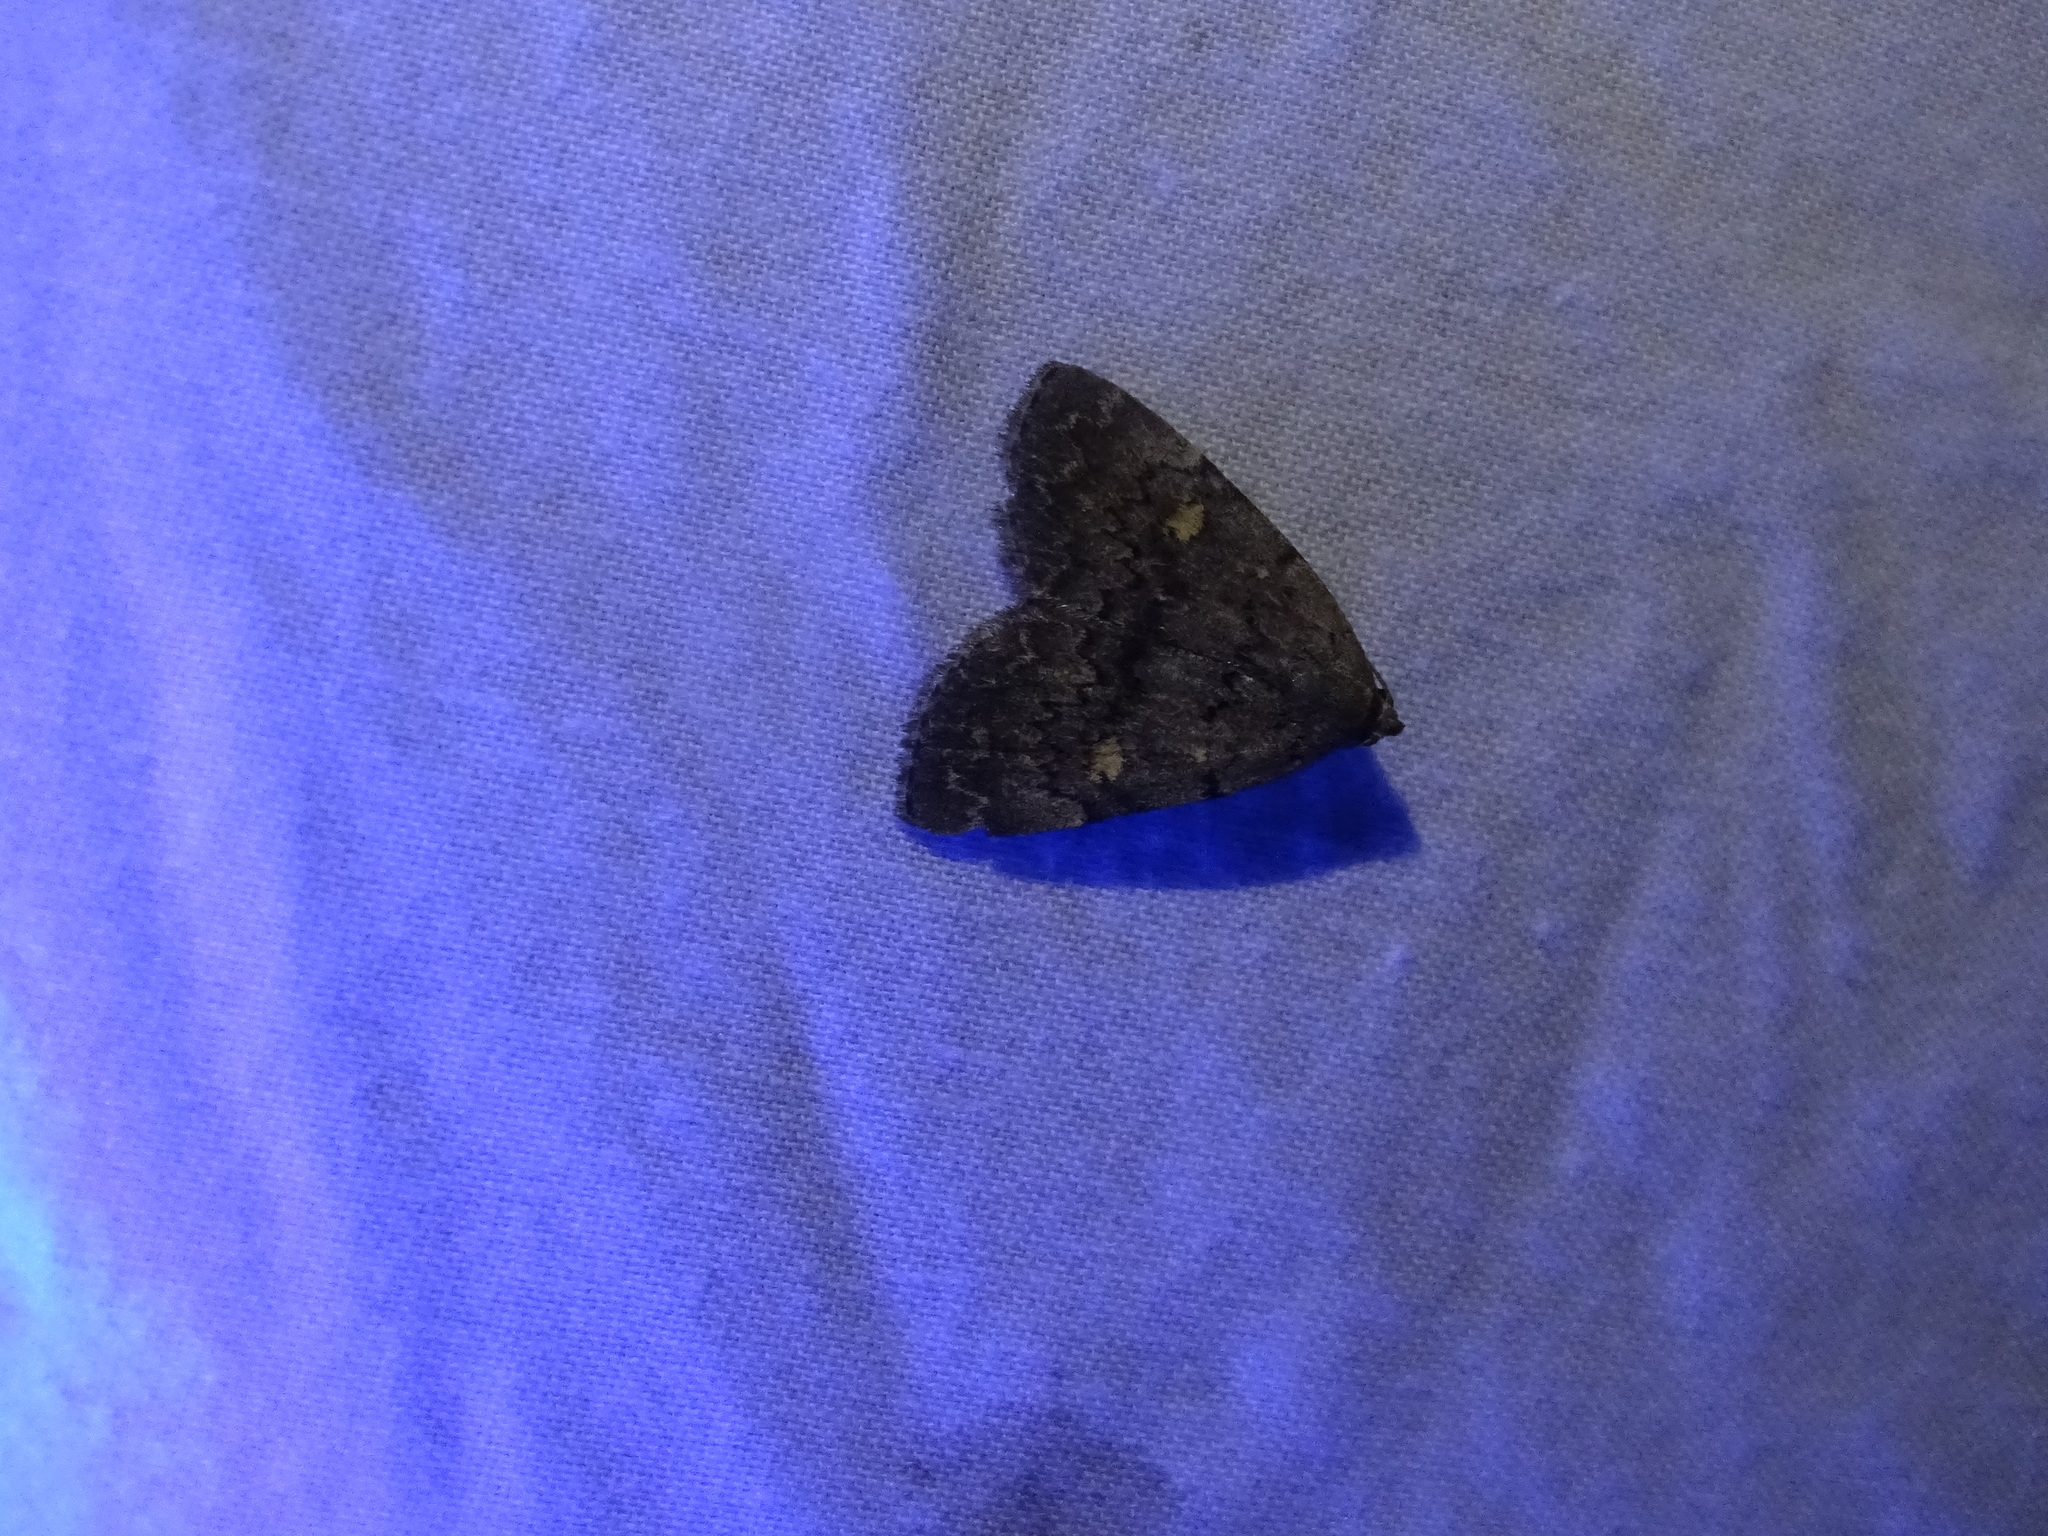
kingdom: Animalia
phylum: Arthropoda
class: Insecta
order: Lepidoptera
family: Erebidae
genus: Idia
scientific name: Idia aemula
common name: Common idia moth
